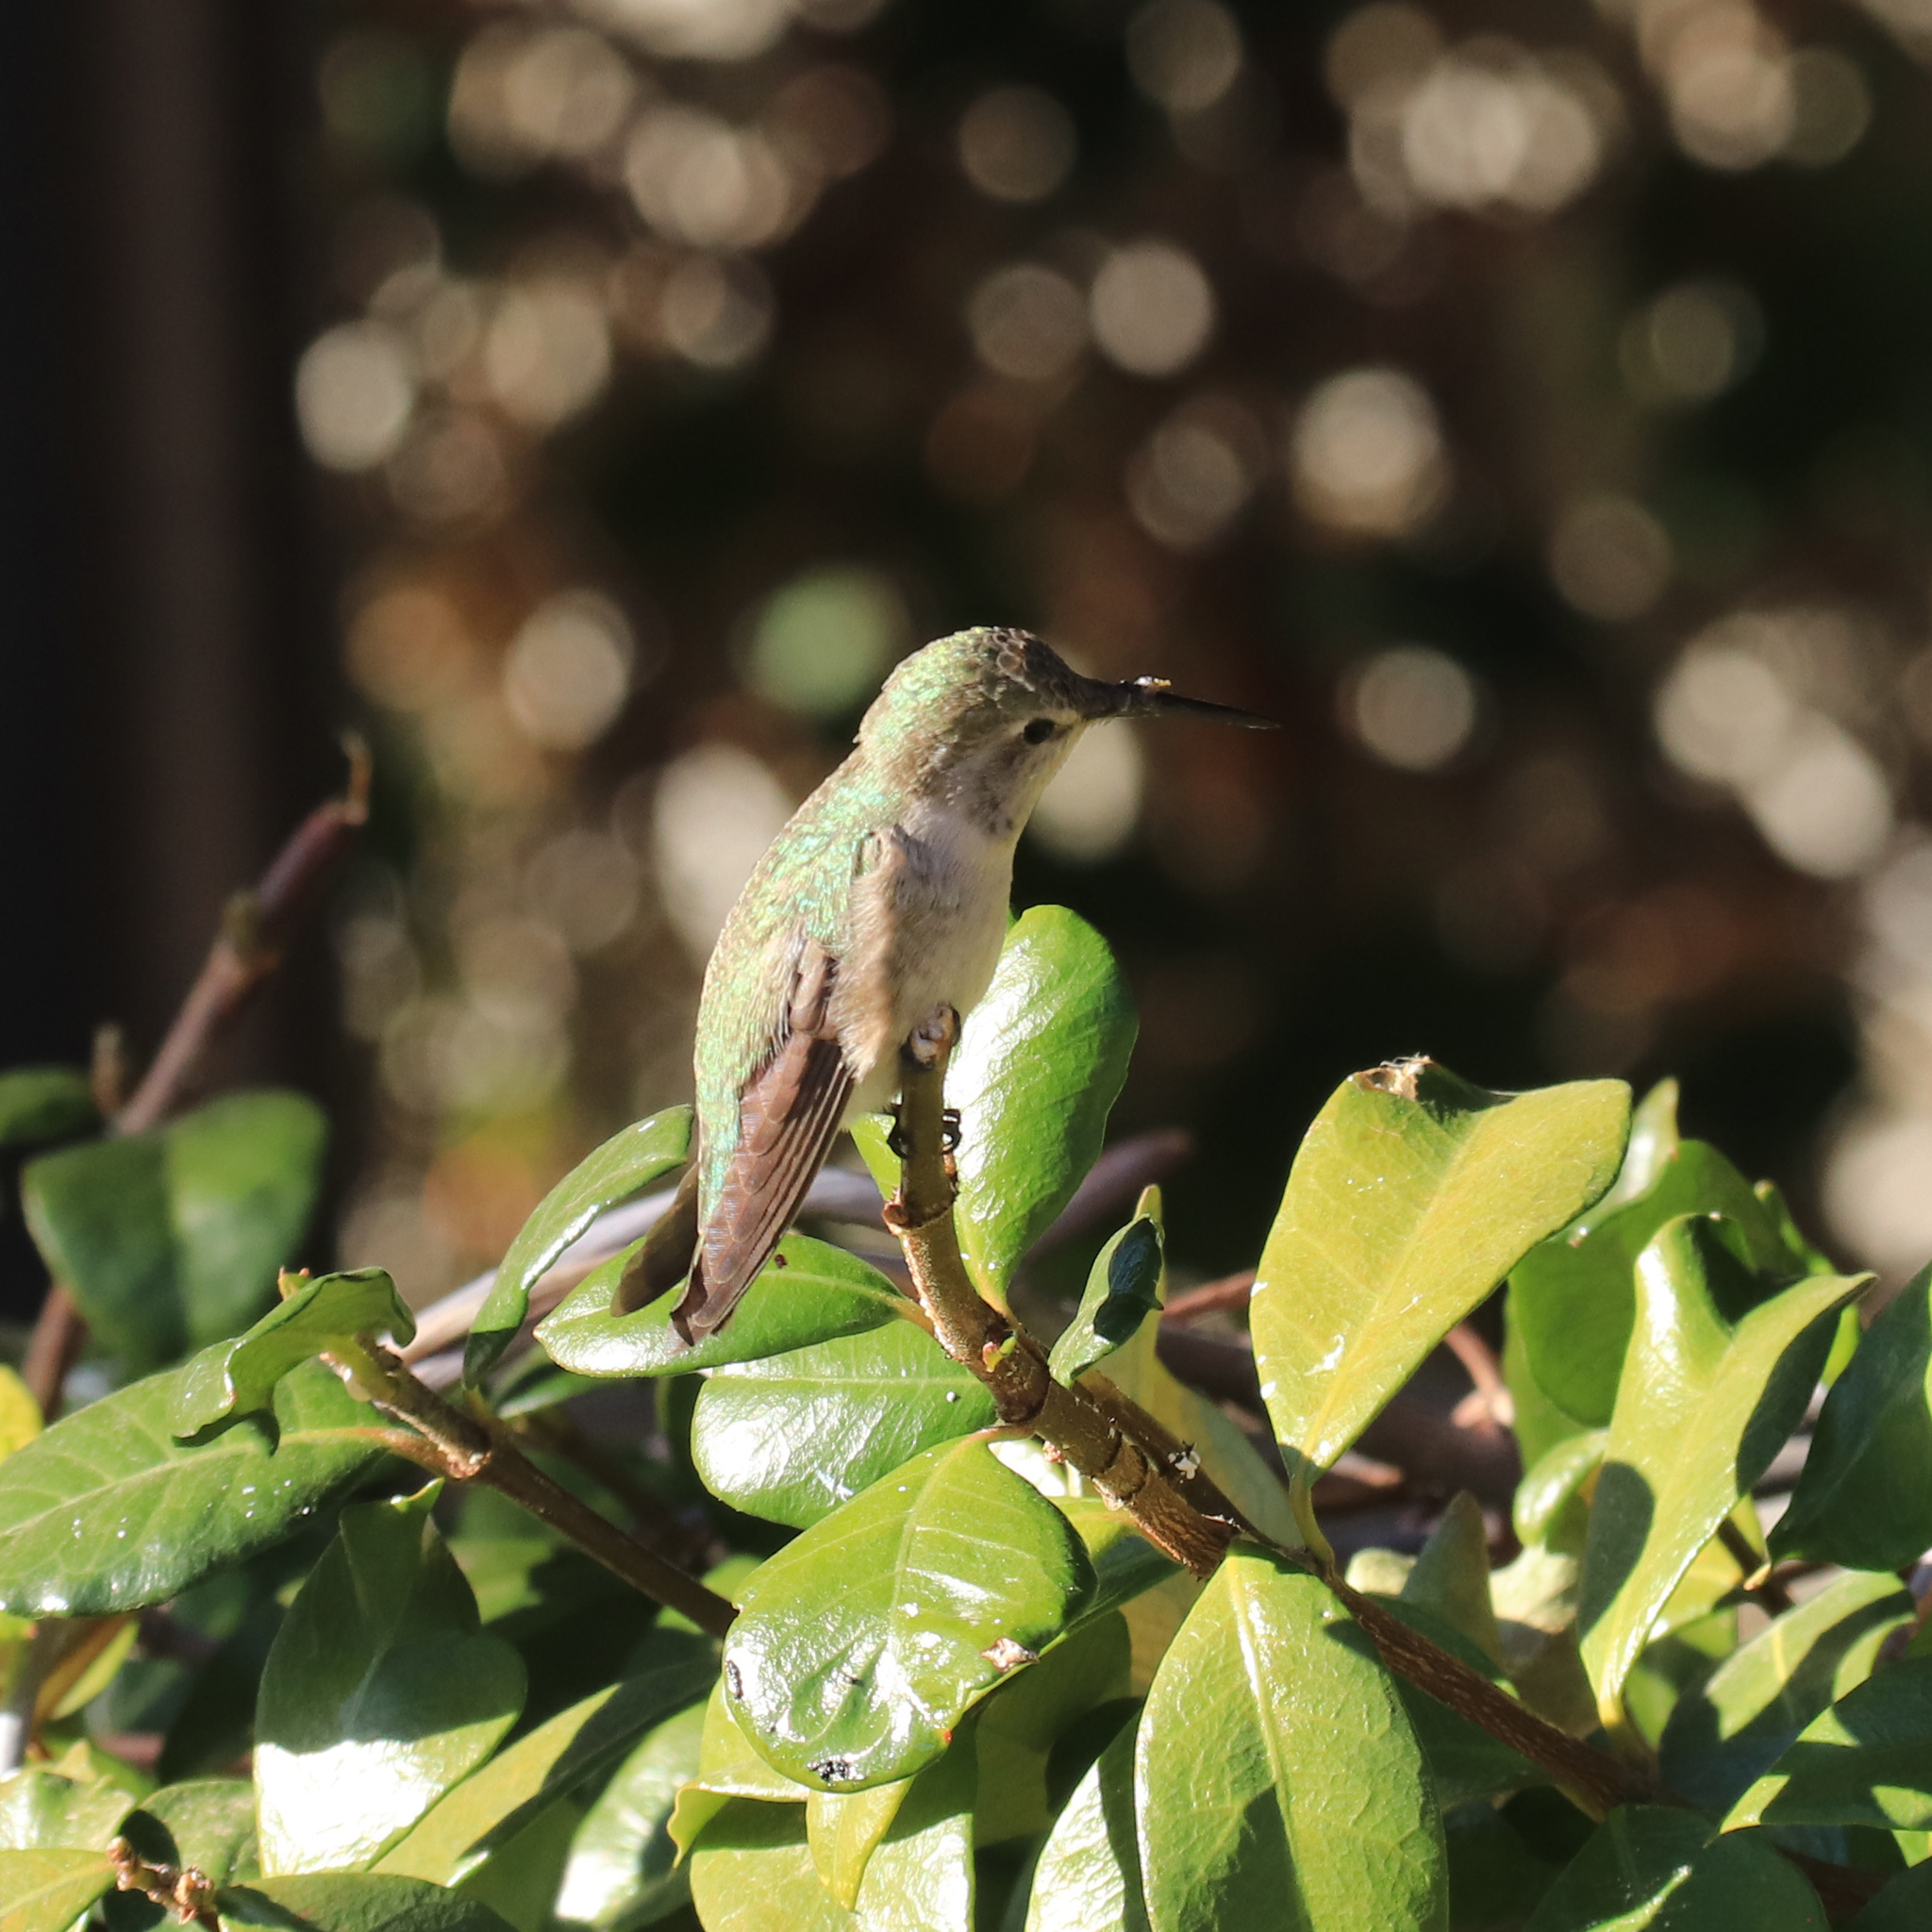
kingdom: Animalia
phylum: Chordata
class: Aves
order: Apodiformes
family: Trochilidae
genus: Calypte
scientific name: Calypte costae
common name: Costa's hummingbird
